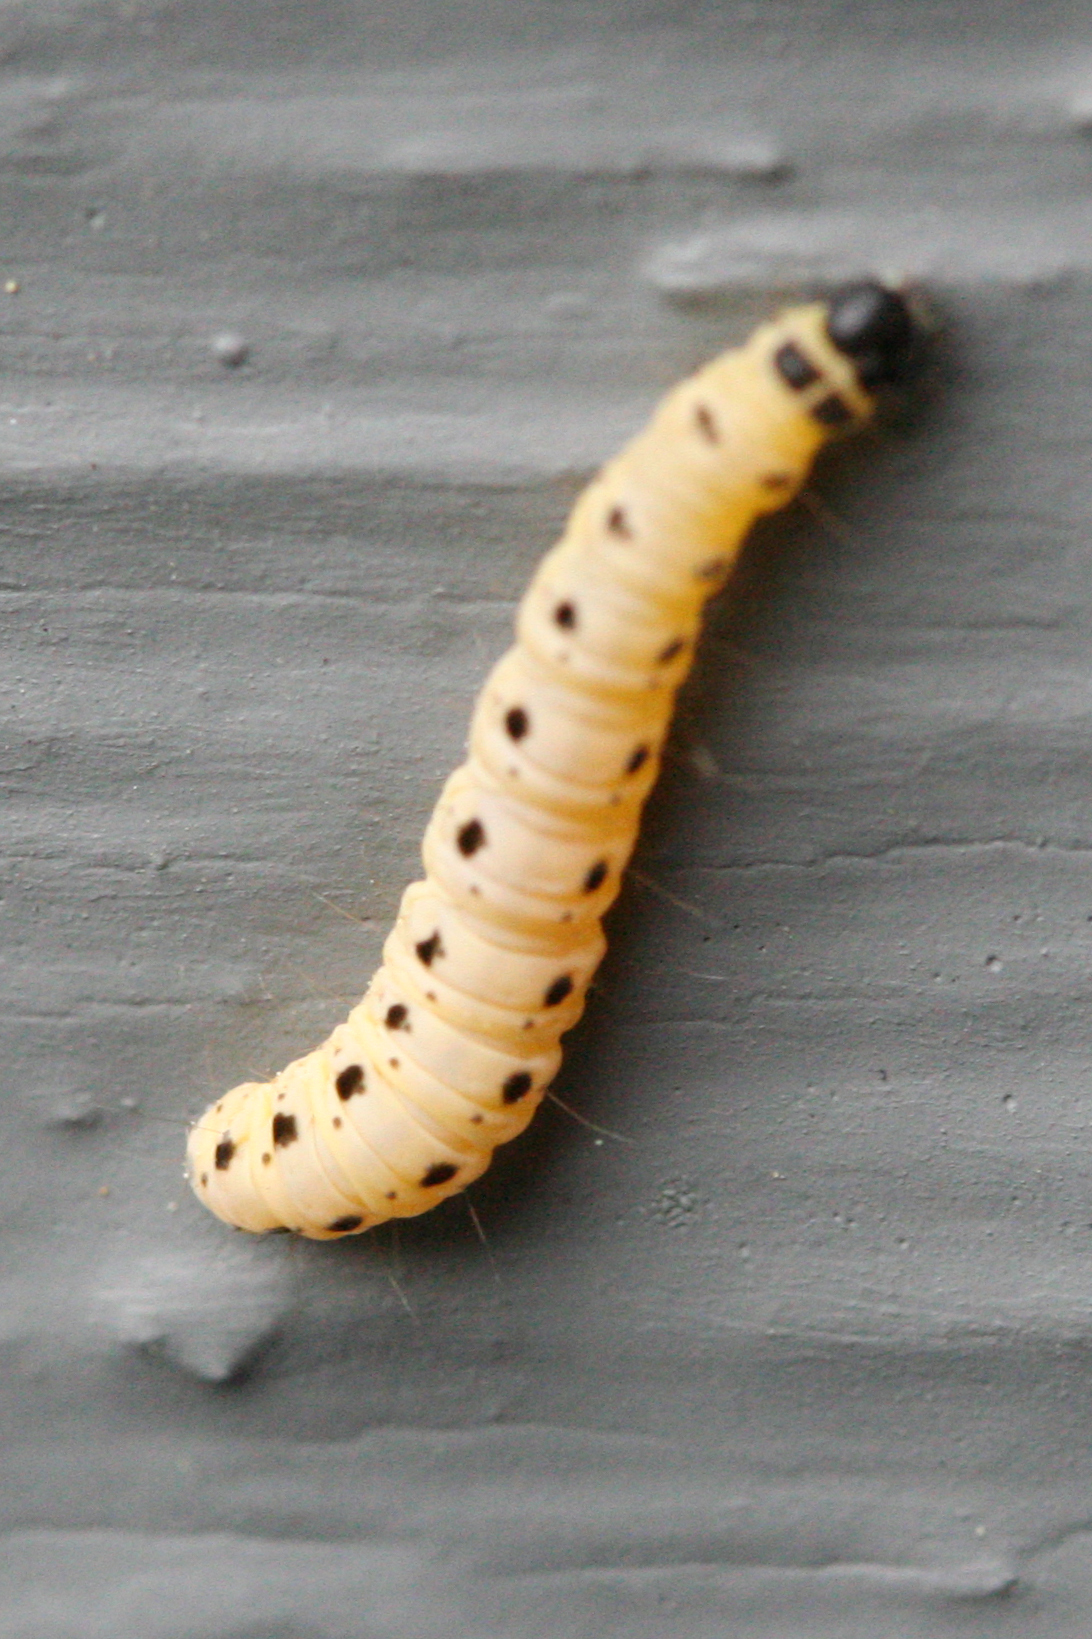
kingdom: Animalia
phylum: Arthropoda
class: Insecta
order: Lepidoptera
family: Yponomeutidae
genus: Yponomeuta
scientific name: Yponomeuta cagnagellus
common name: Spindle ermine
